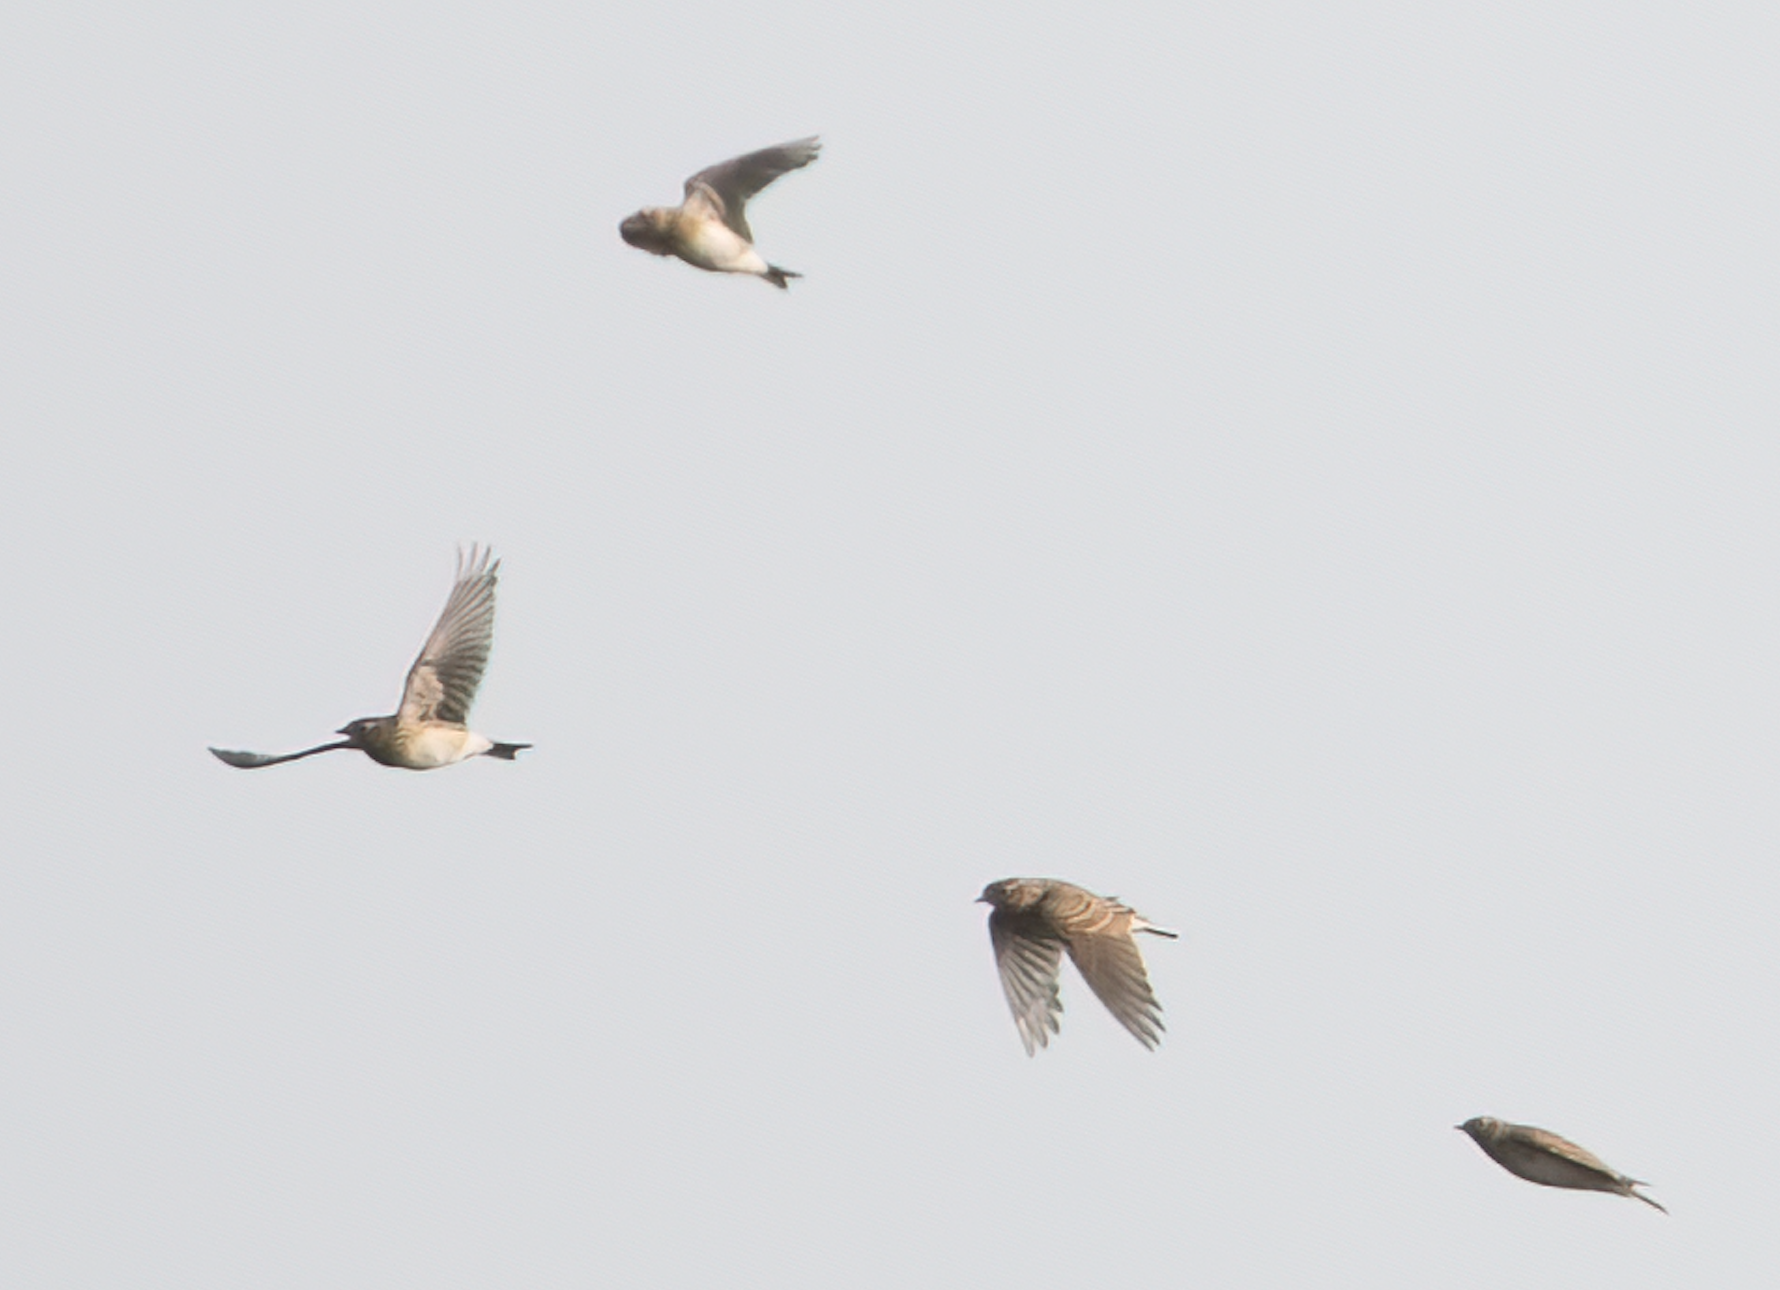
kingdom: Animalia
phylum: Chordata
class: Aves
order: Passeriformes
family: Alaudidae
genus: Alauda
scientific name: Alauda arvensis
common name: Eurasian skylark
